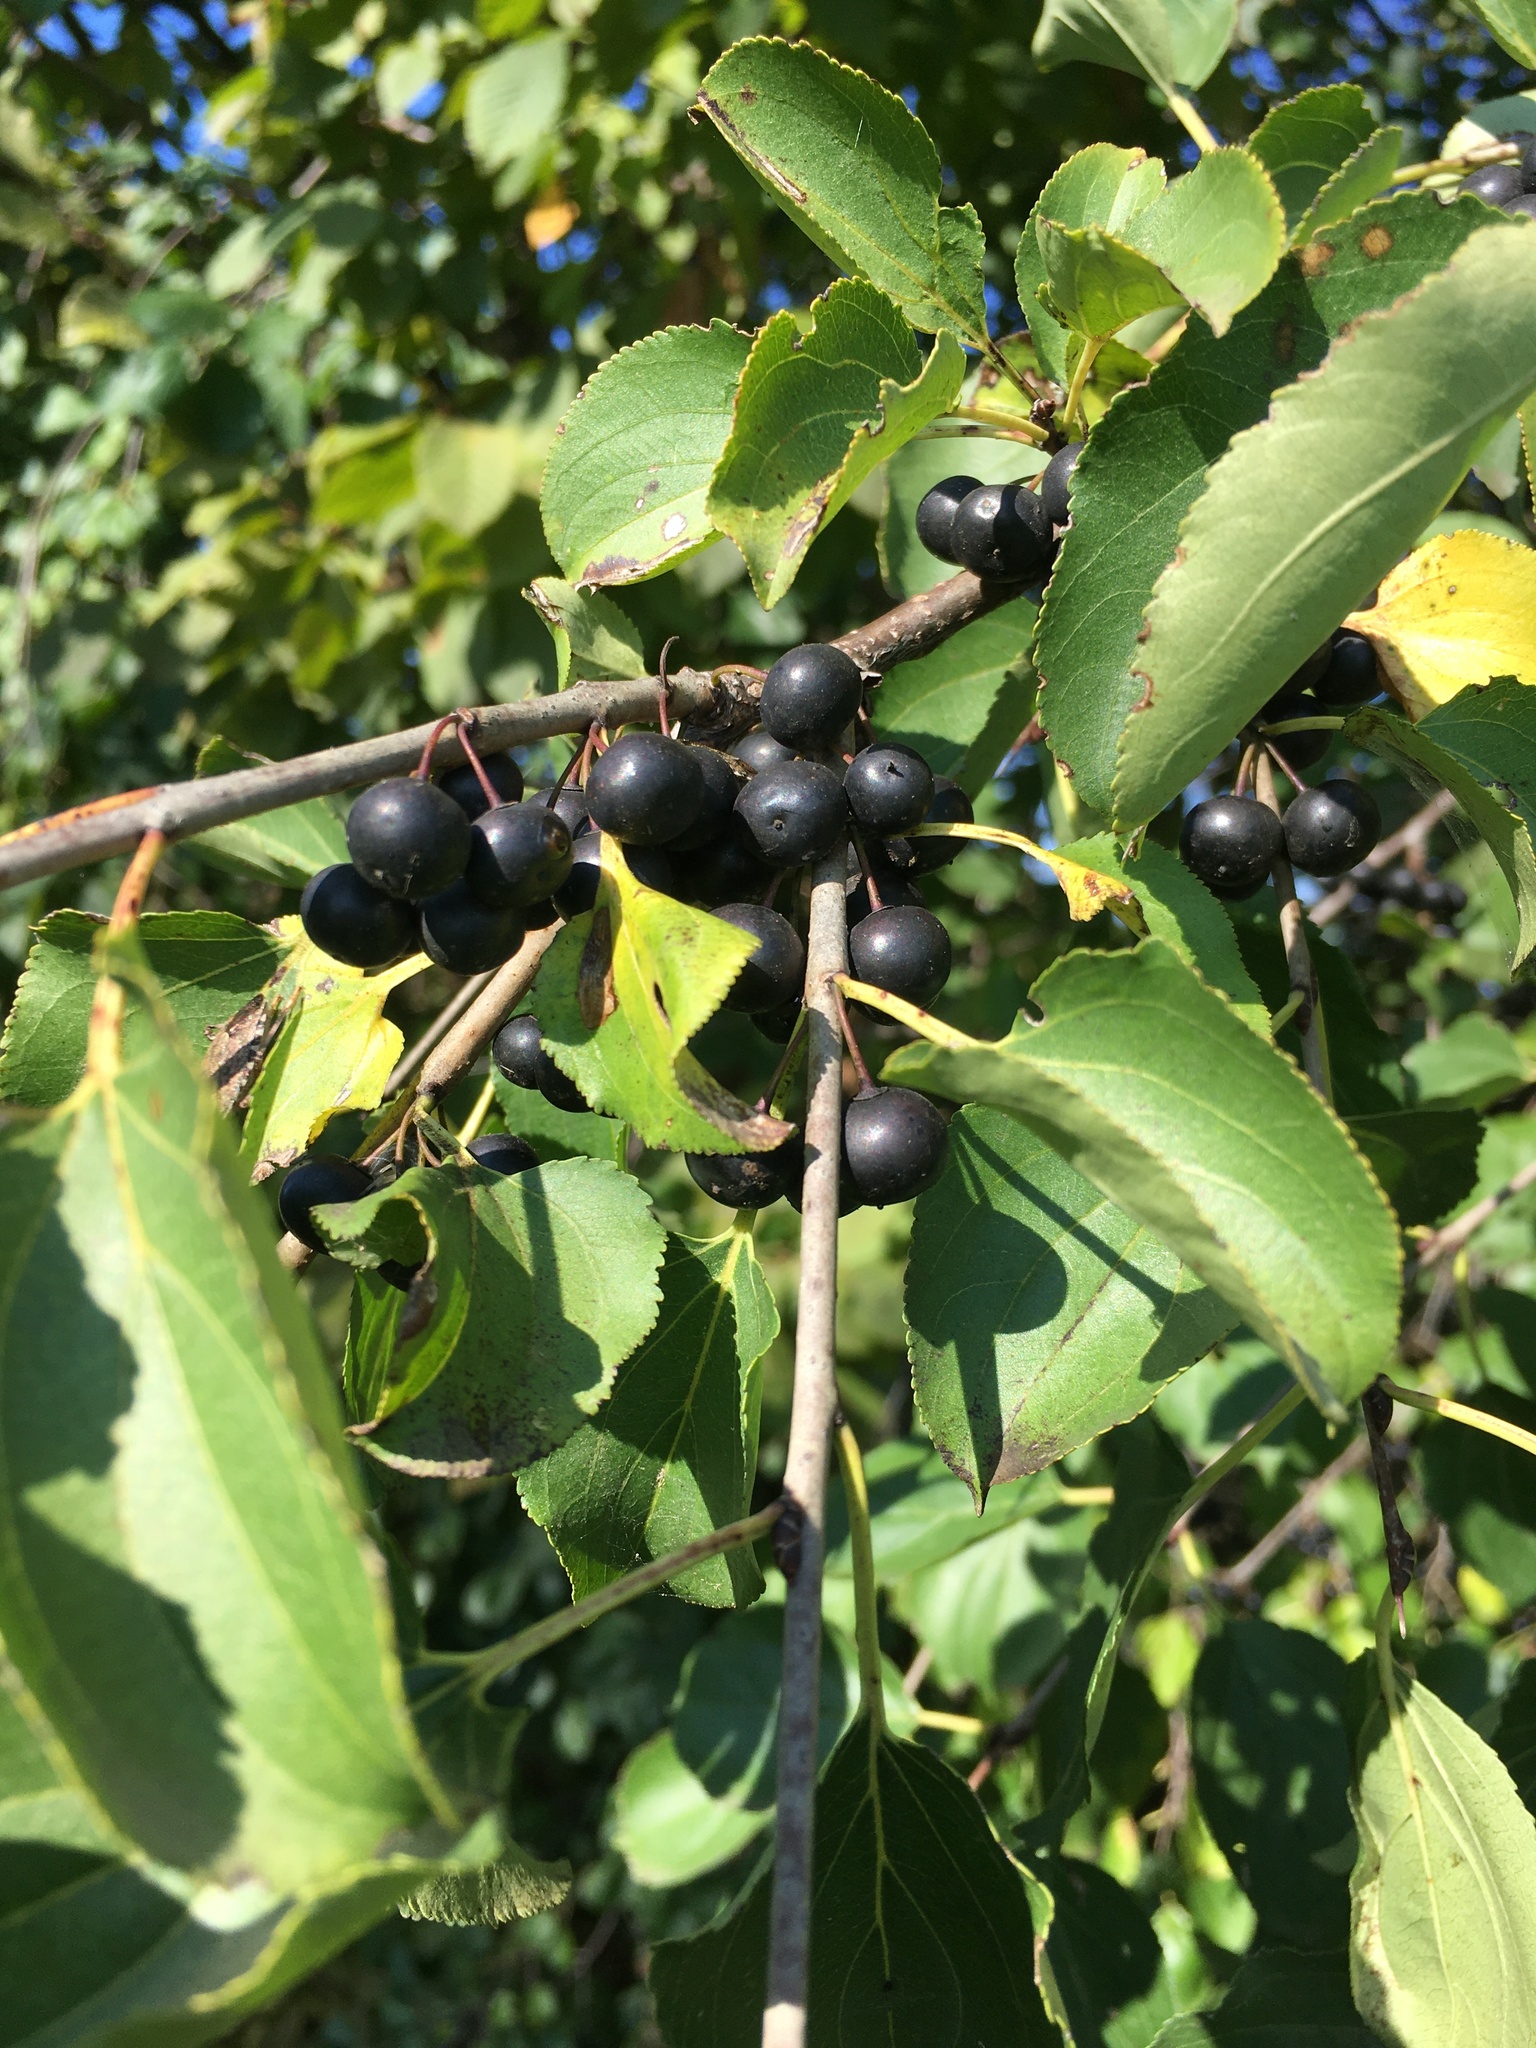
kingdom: Plantae
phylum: Tracheophyta
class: Magnoliopsida
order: Rosales
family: Rhamnaceae
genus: Rhamnus
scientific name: Rhamnus cathartica
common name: Common buckthorn
